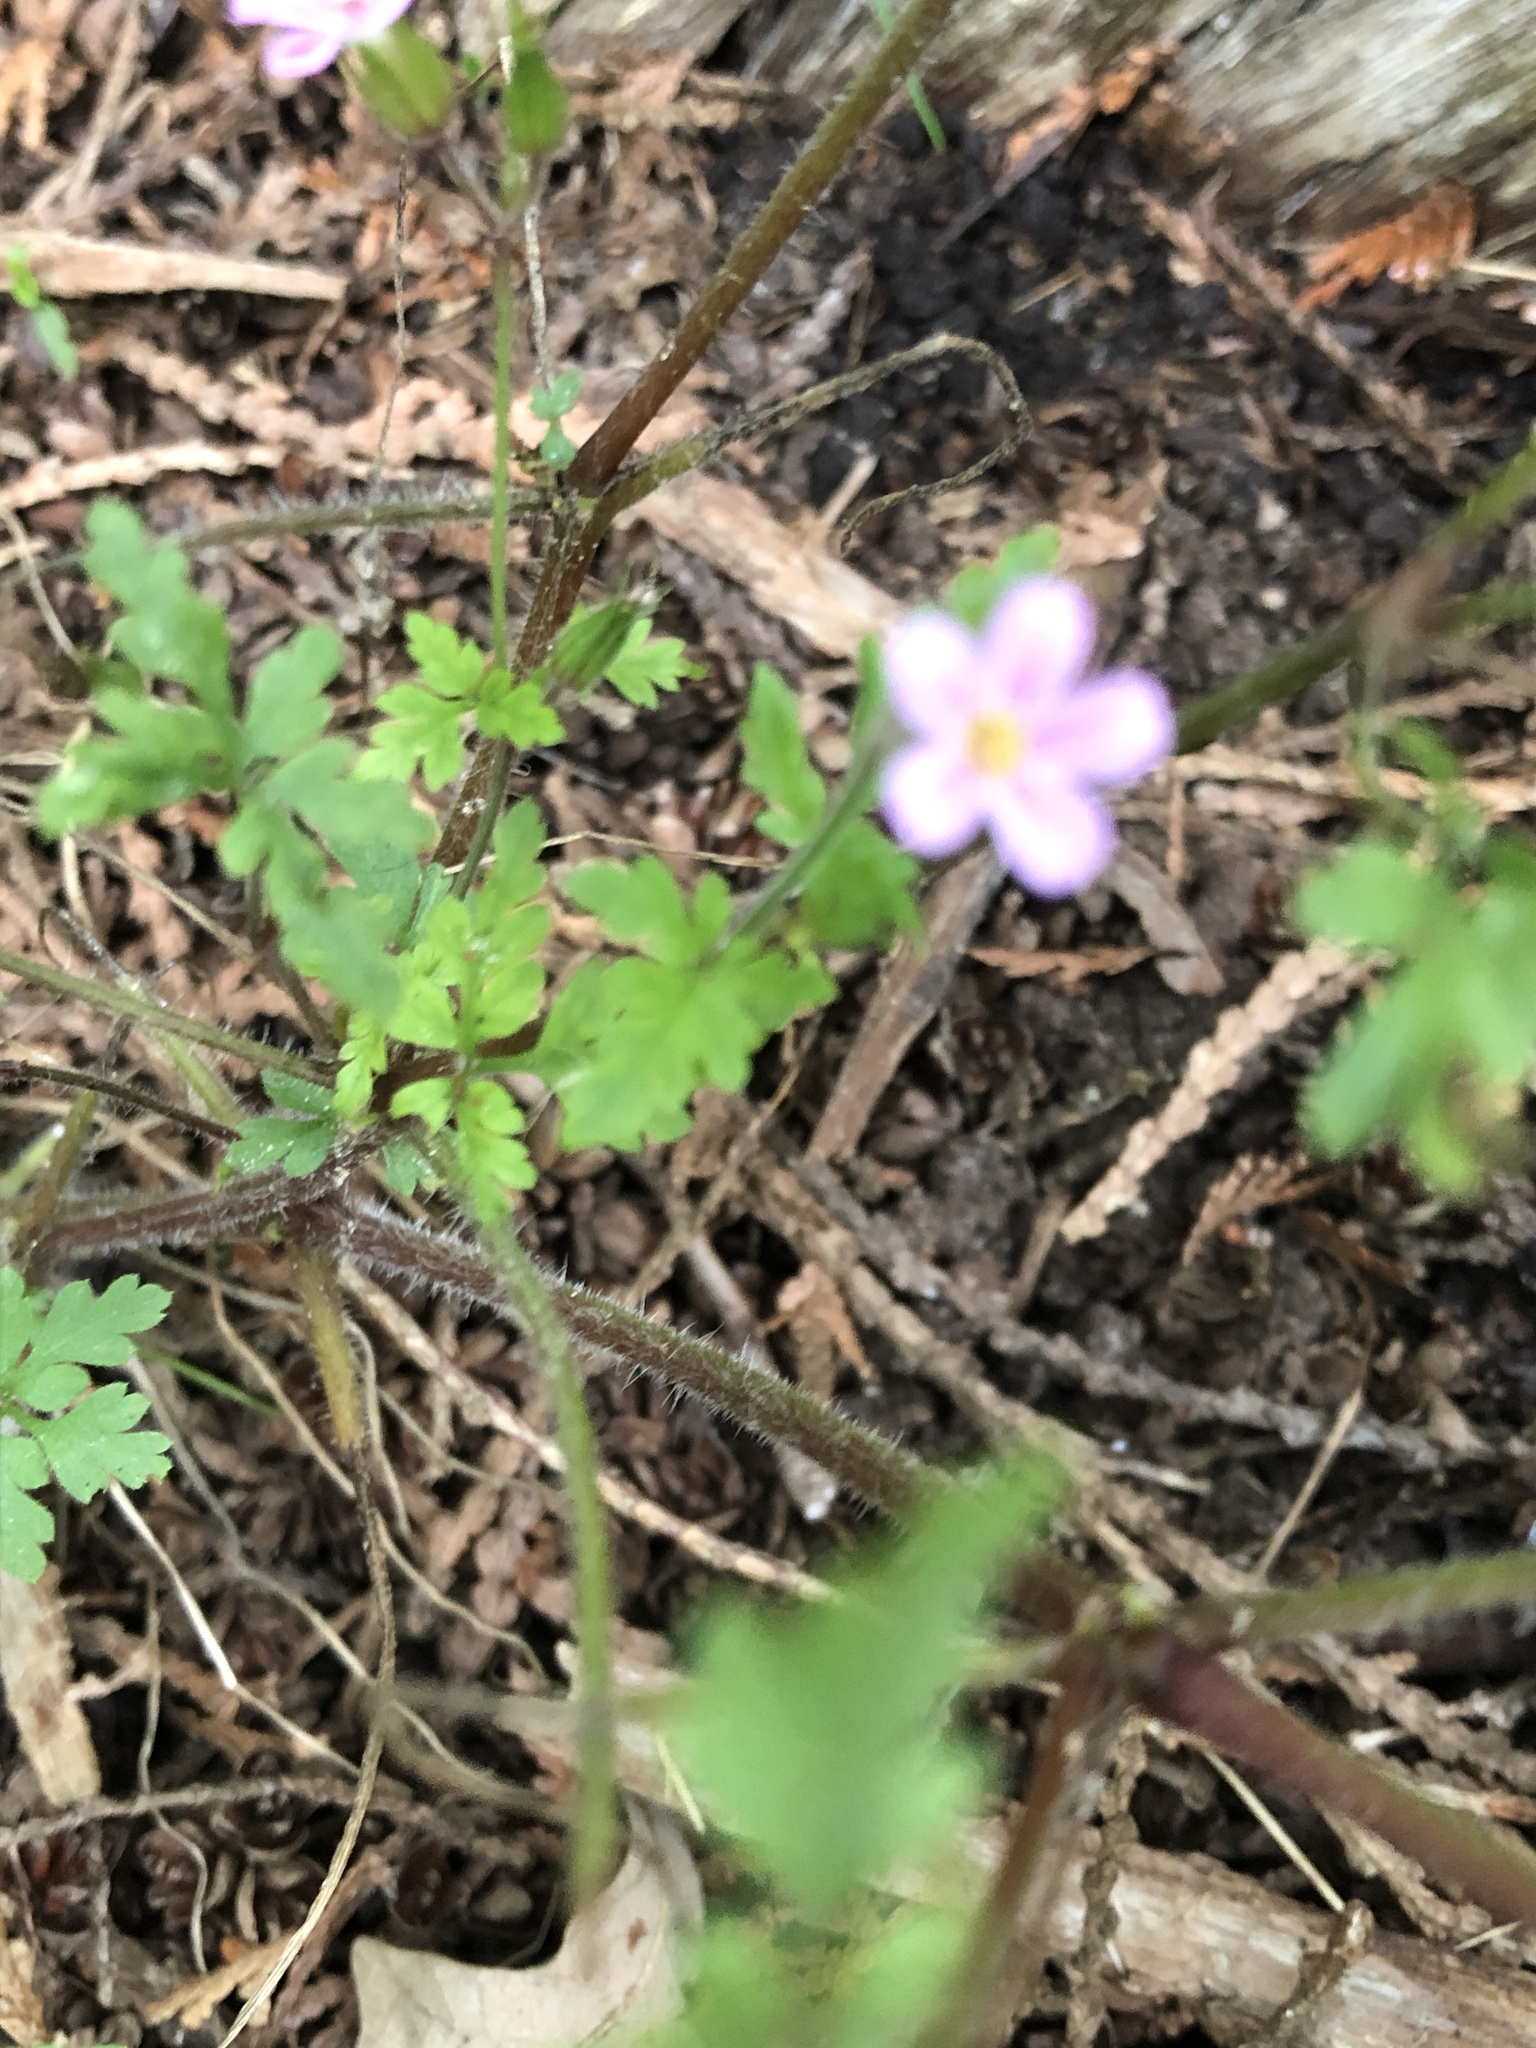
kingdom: Plantae
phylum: Tracheophyta
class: Magnoliopsida
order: Geraniales
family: Geraniaceae
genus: Geranium
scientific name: Geranium robertianum
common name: Herb-robert
